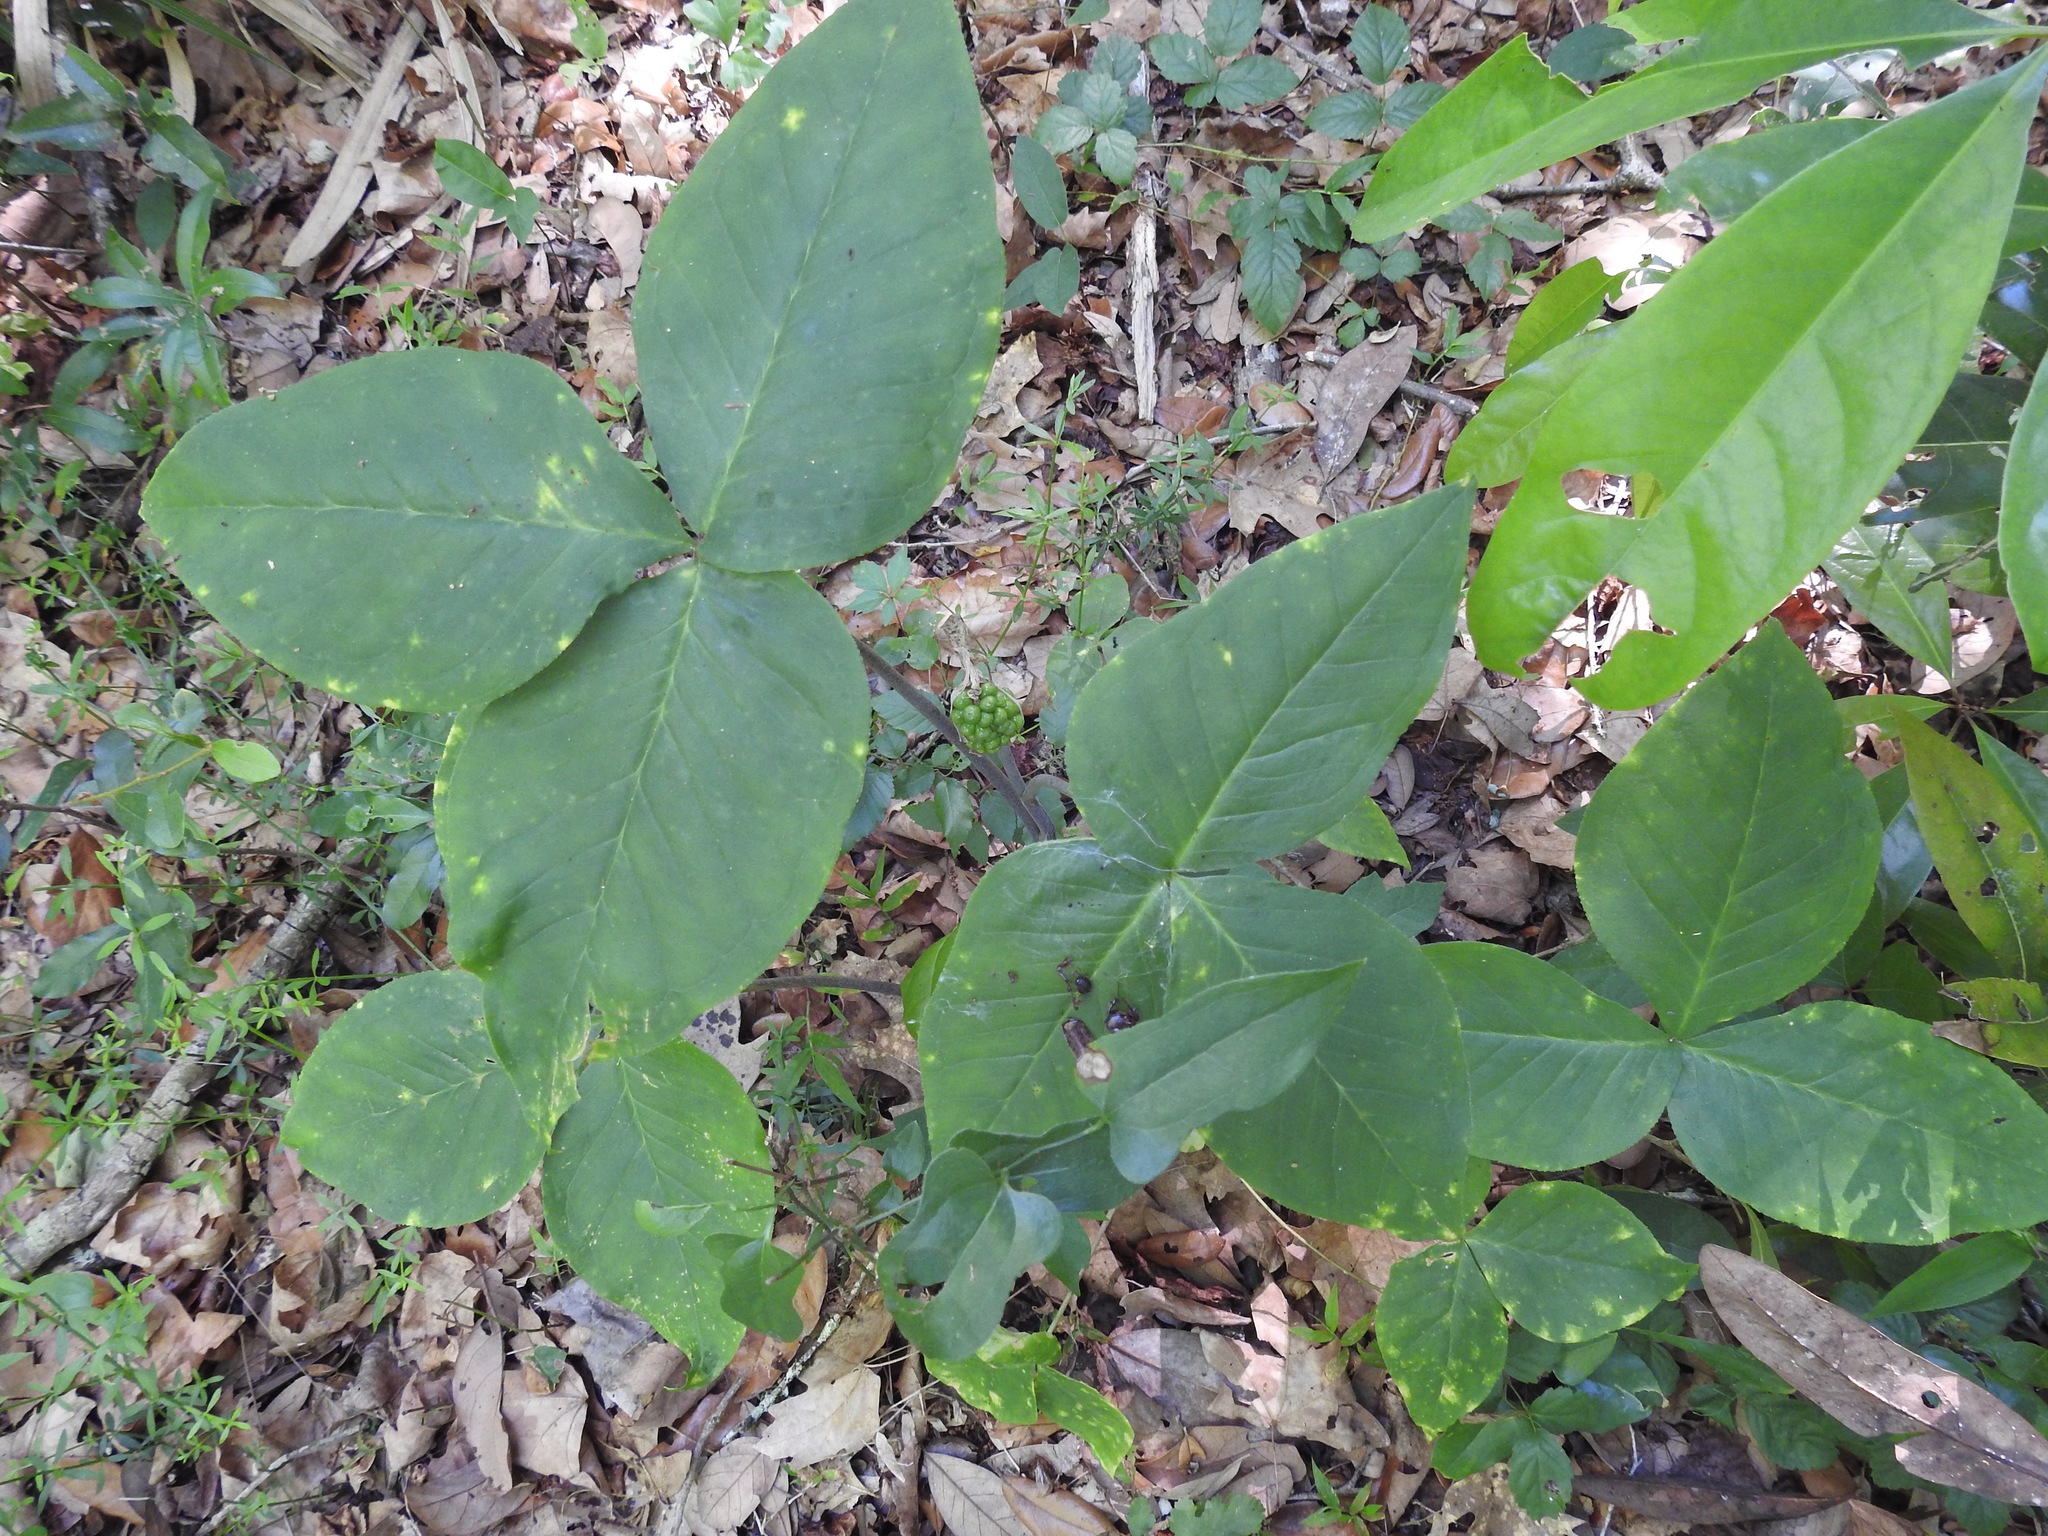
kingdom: Plantae
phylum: Tracheophyta
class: Liliopsida
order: Alismatales
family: Araceae
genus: Arisaema
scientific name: Arisaema acuminatum
